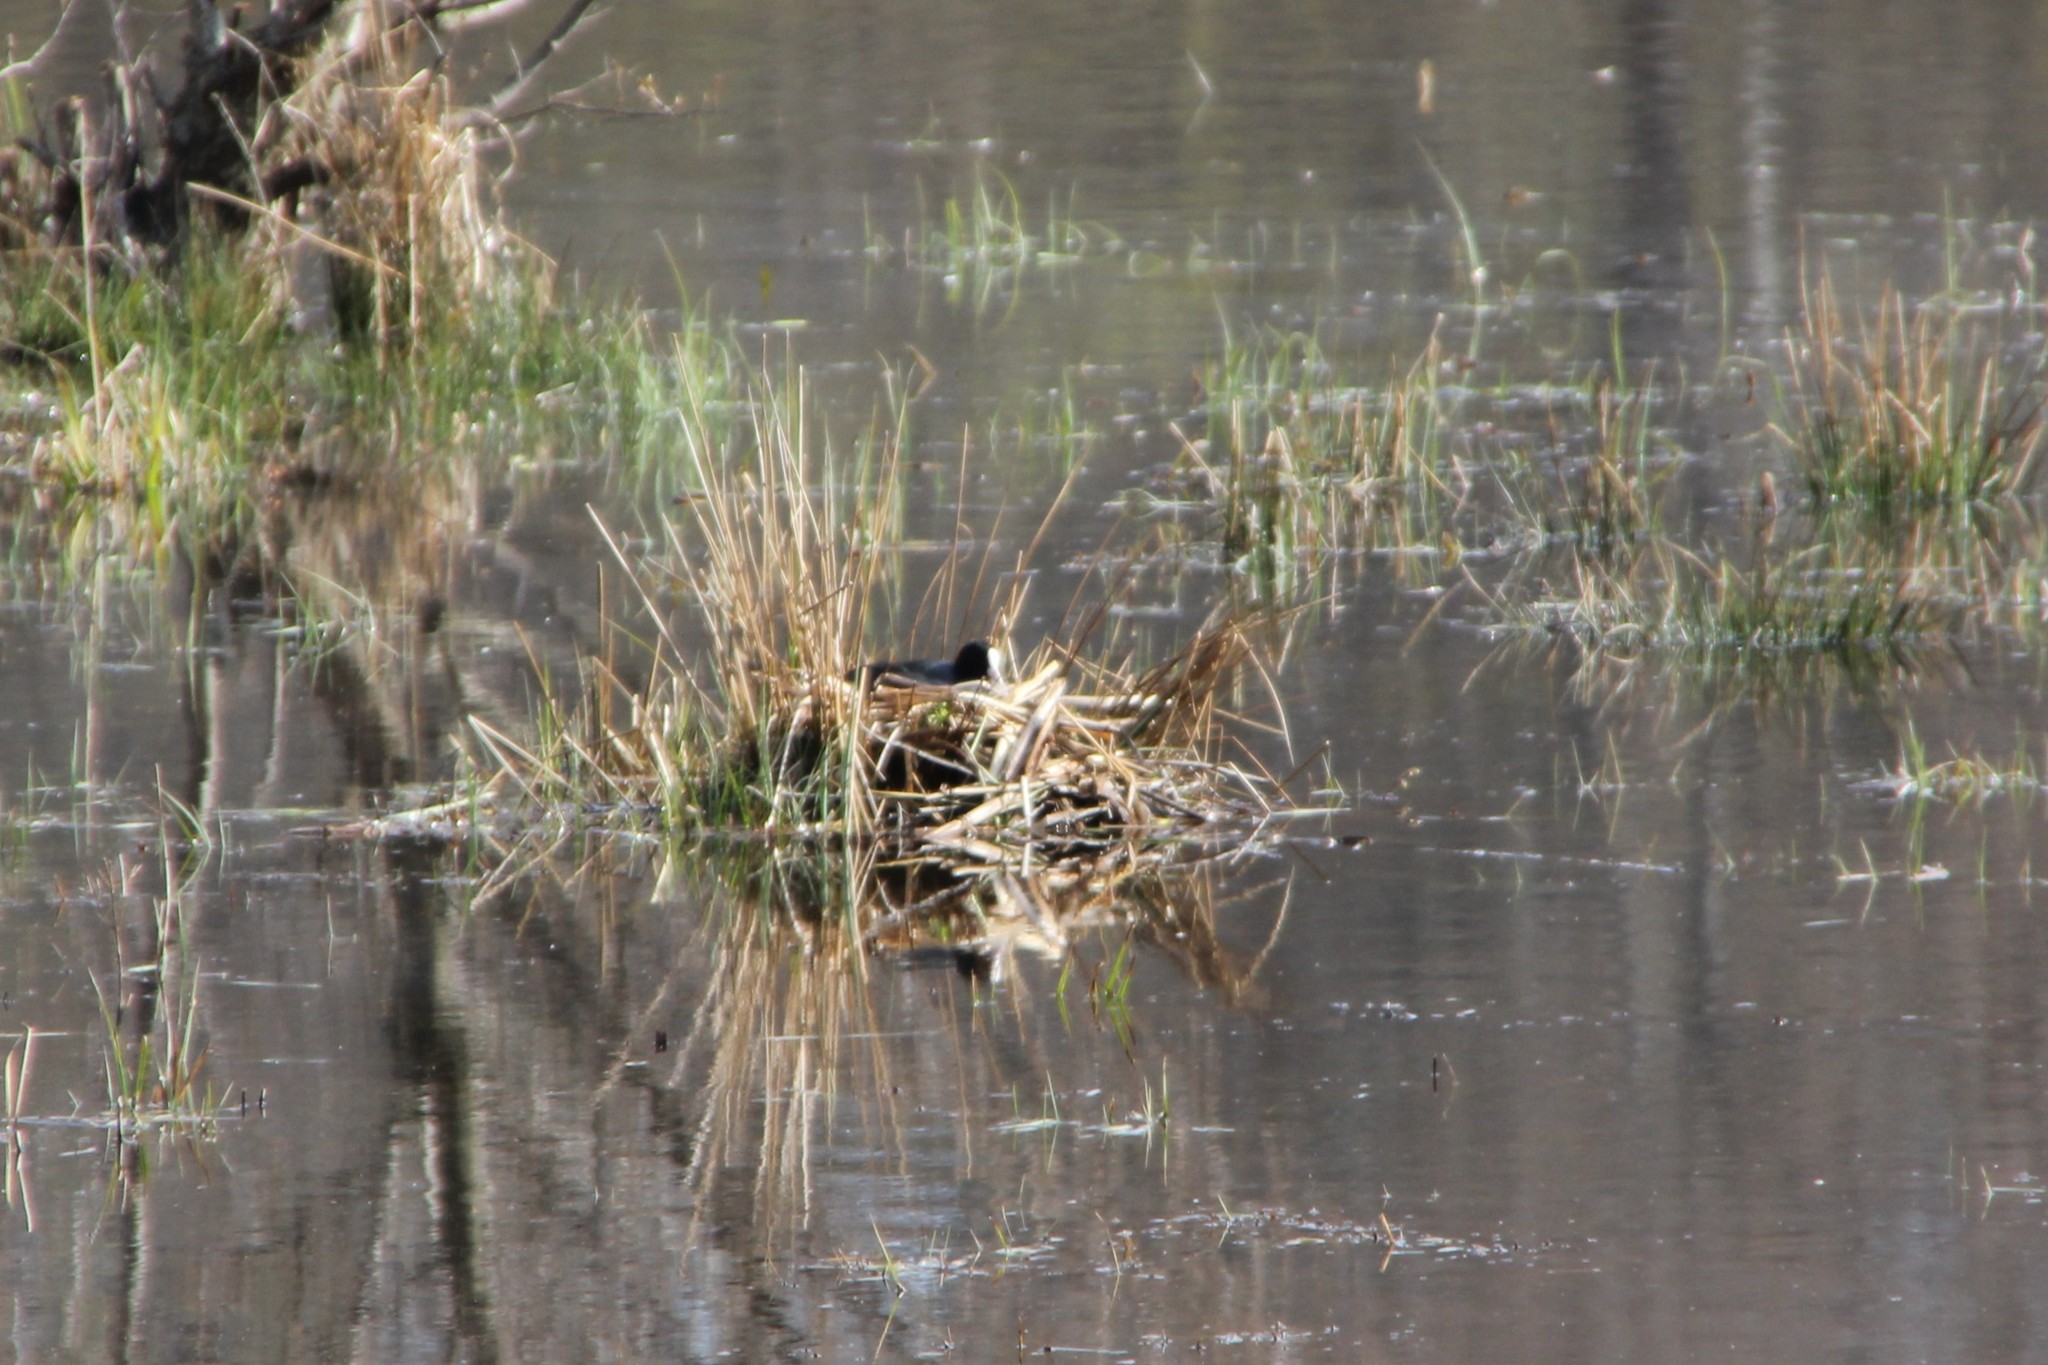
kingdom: Animalia
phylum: Chordata
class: Aves
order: Gruiformes
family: Rallidae
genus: Fulica
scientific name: Fulica atra
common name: Eurasian coot
